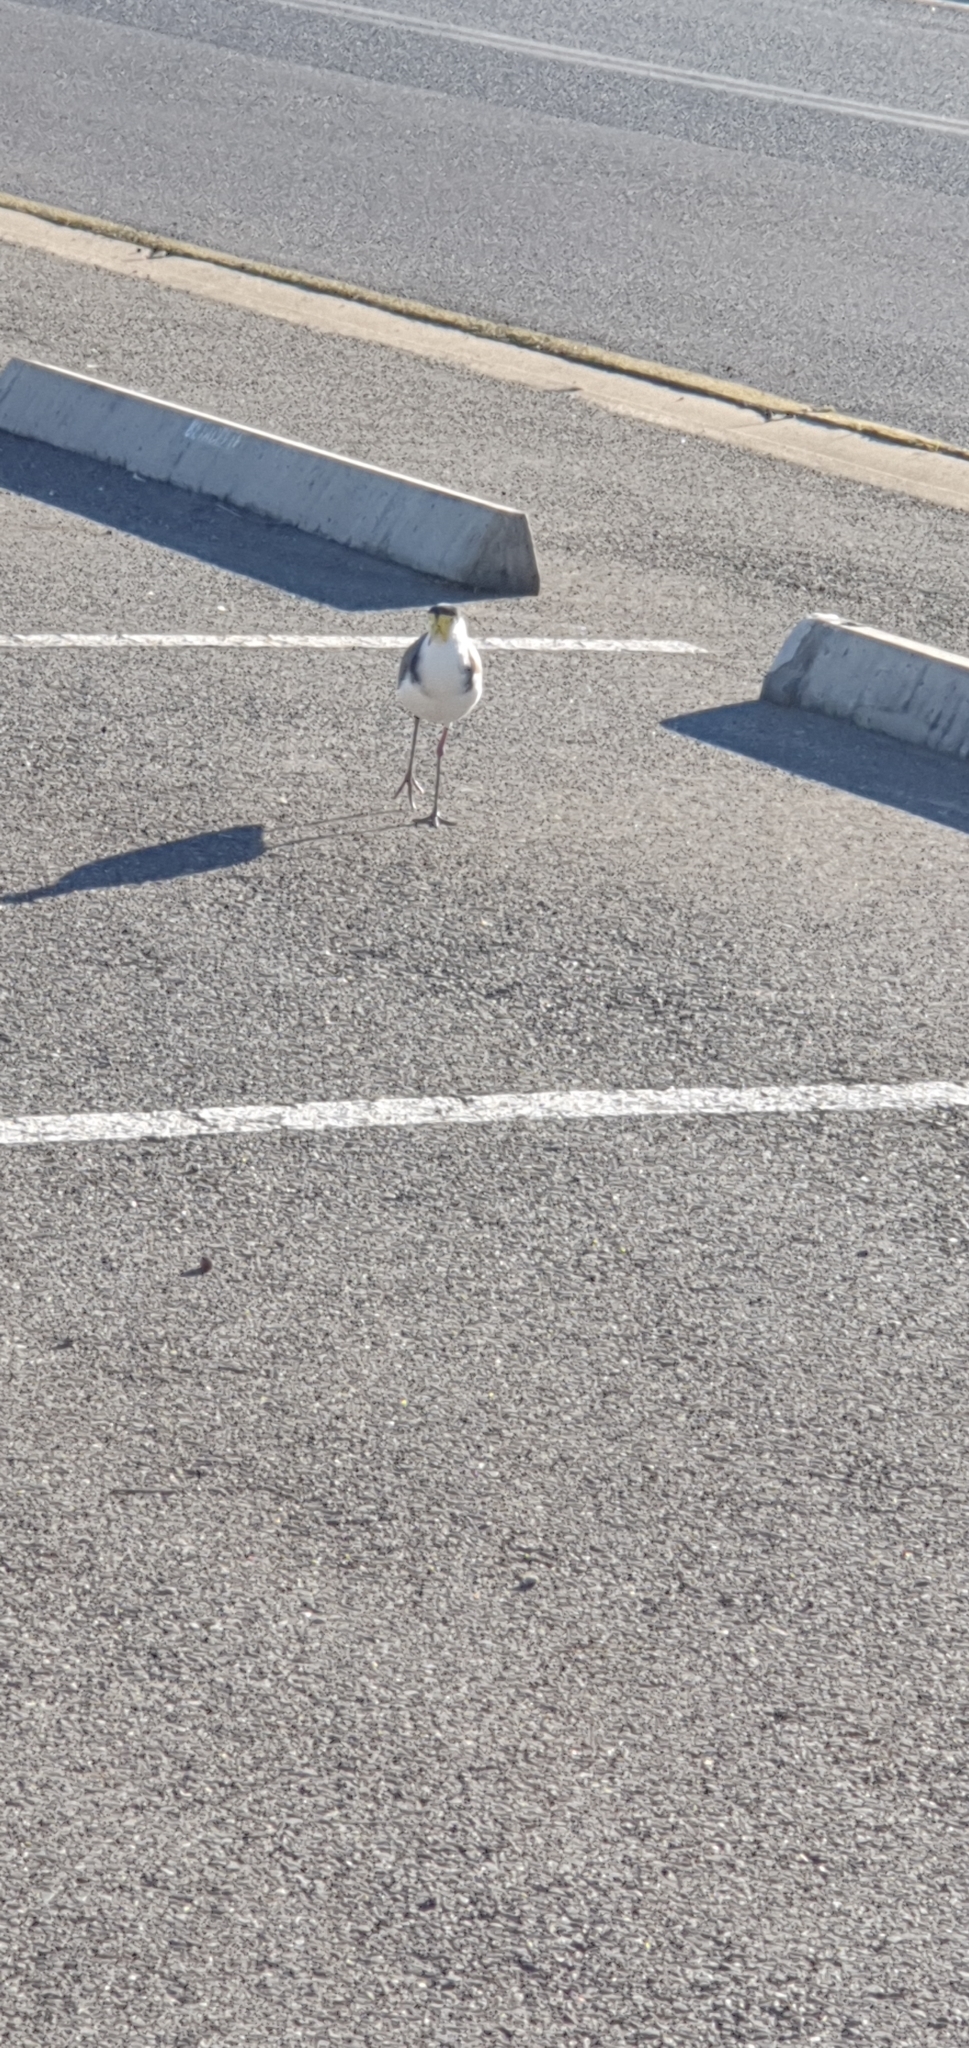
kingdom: Animalia
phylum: Chordata
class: Aves
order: Charadriiformes
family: Charadriidae
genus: Vanellus
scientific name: Vanellus miles
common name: Masked lapwing
